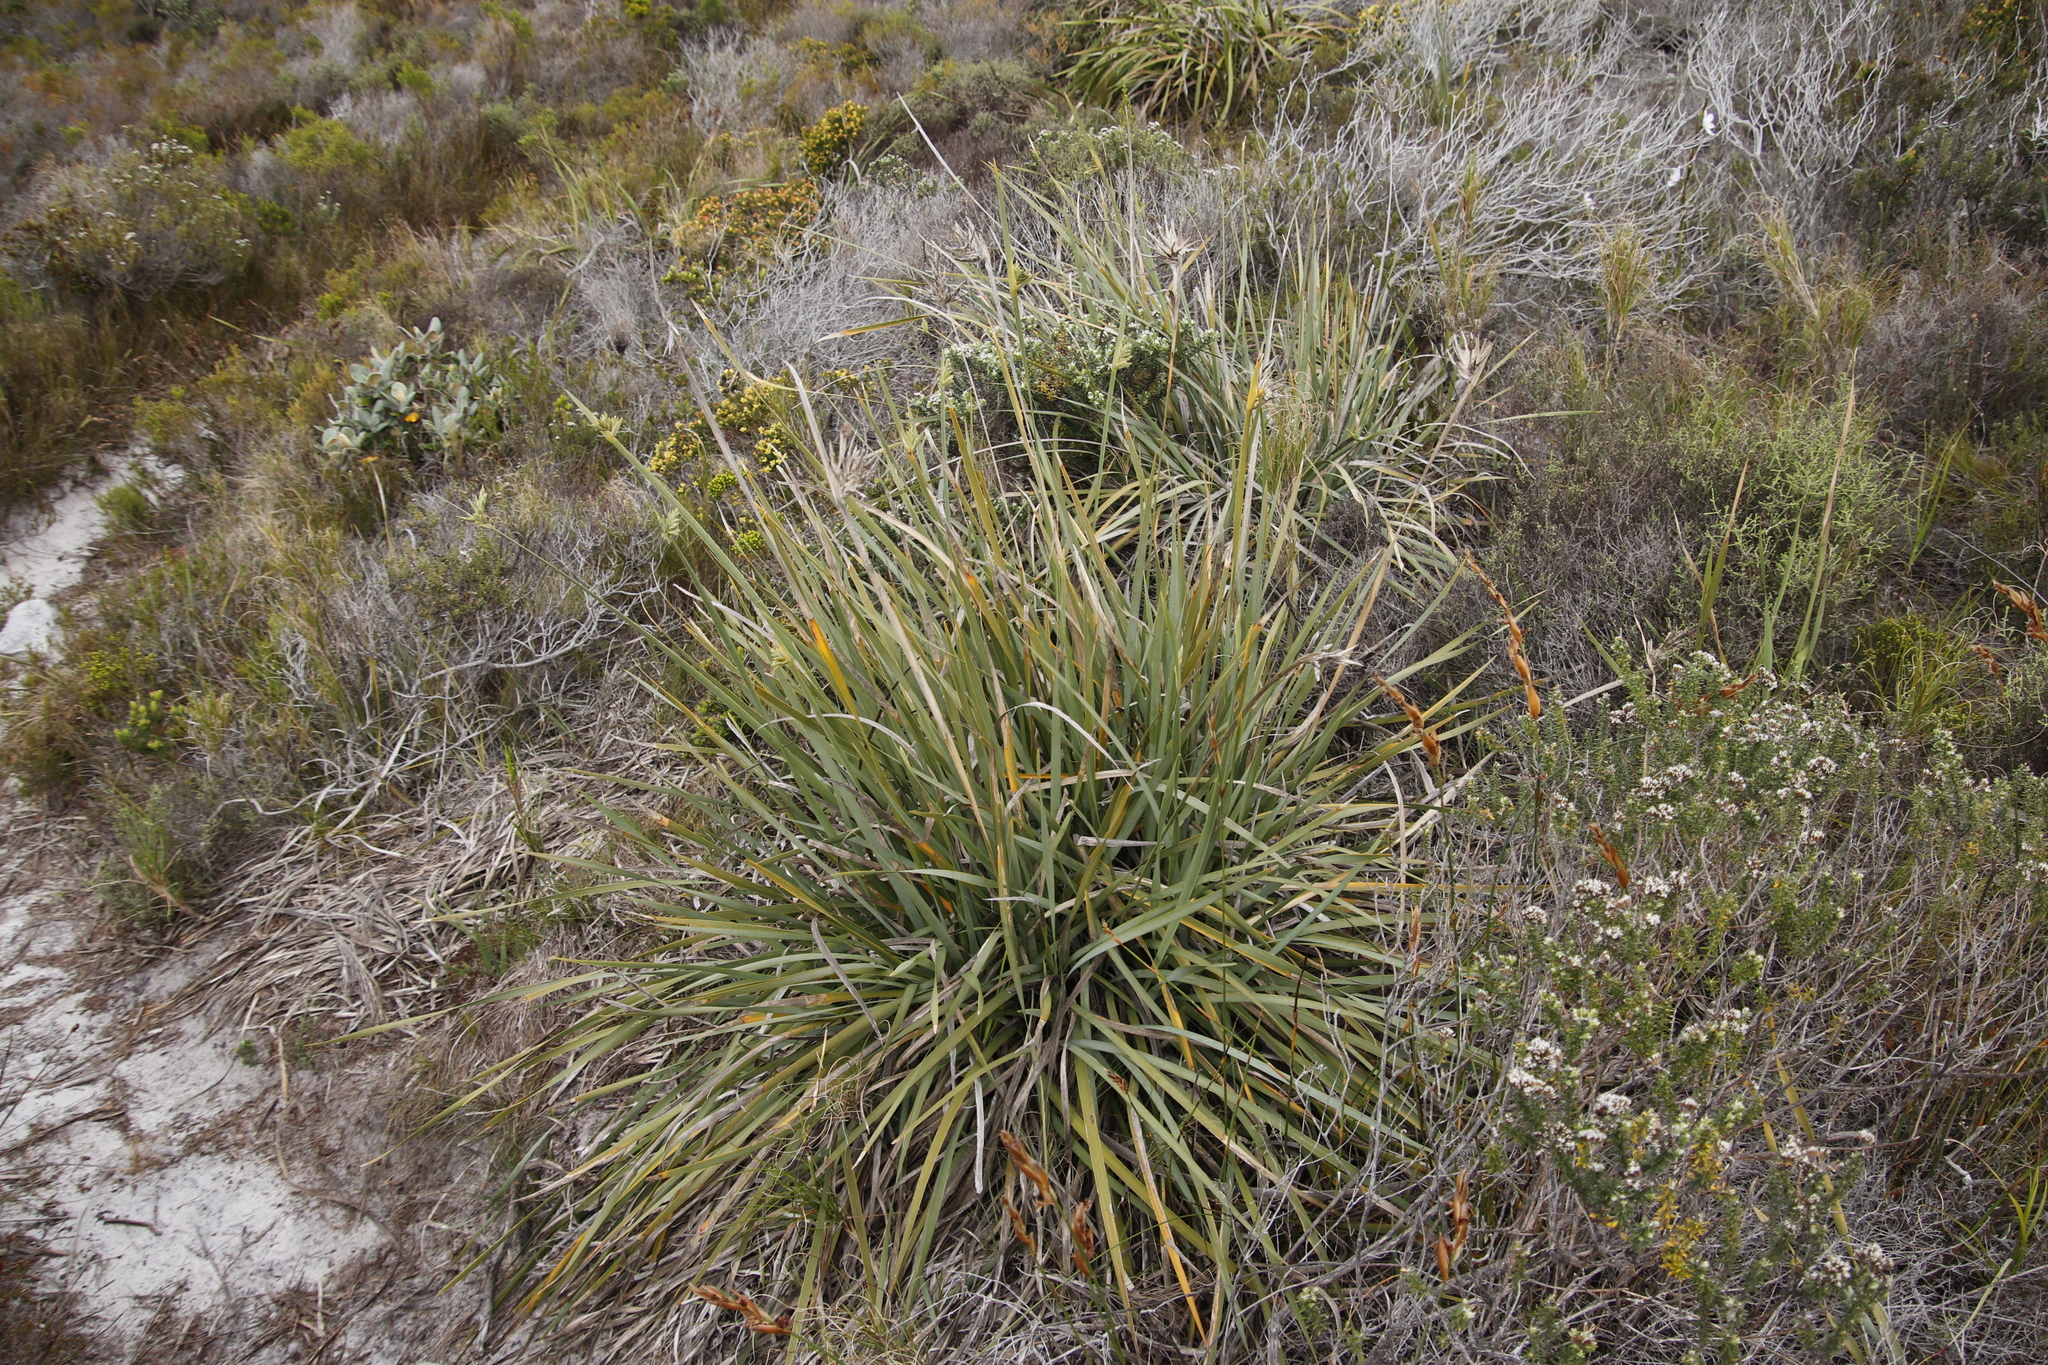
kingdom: Plantae
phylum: Tracheophyta
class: Liliopsida
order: Asparagales
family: Iridaceae
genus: Bobartia
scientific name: Bobartia gladiata
